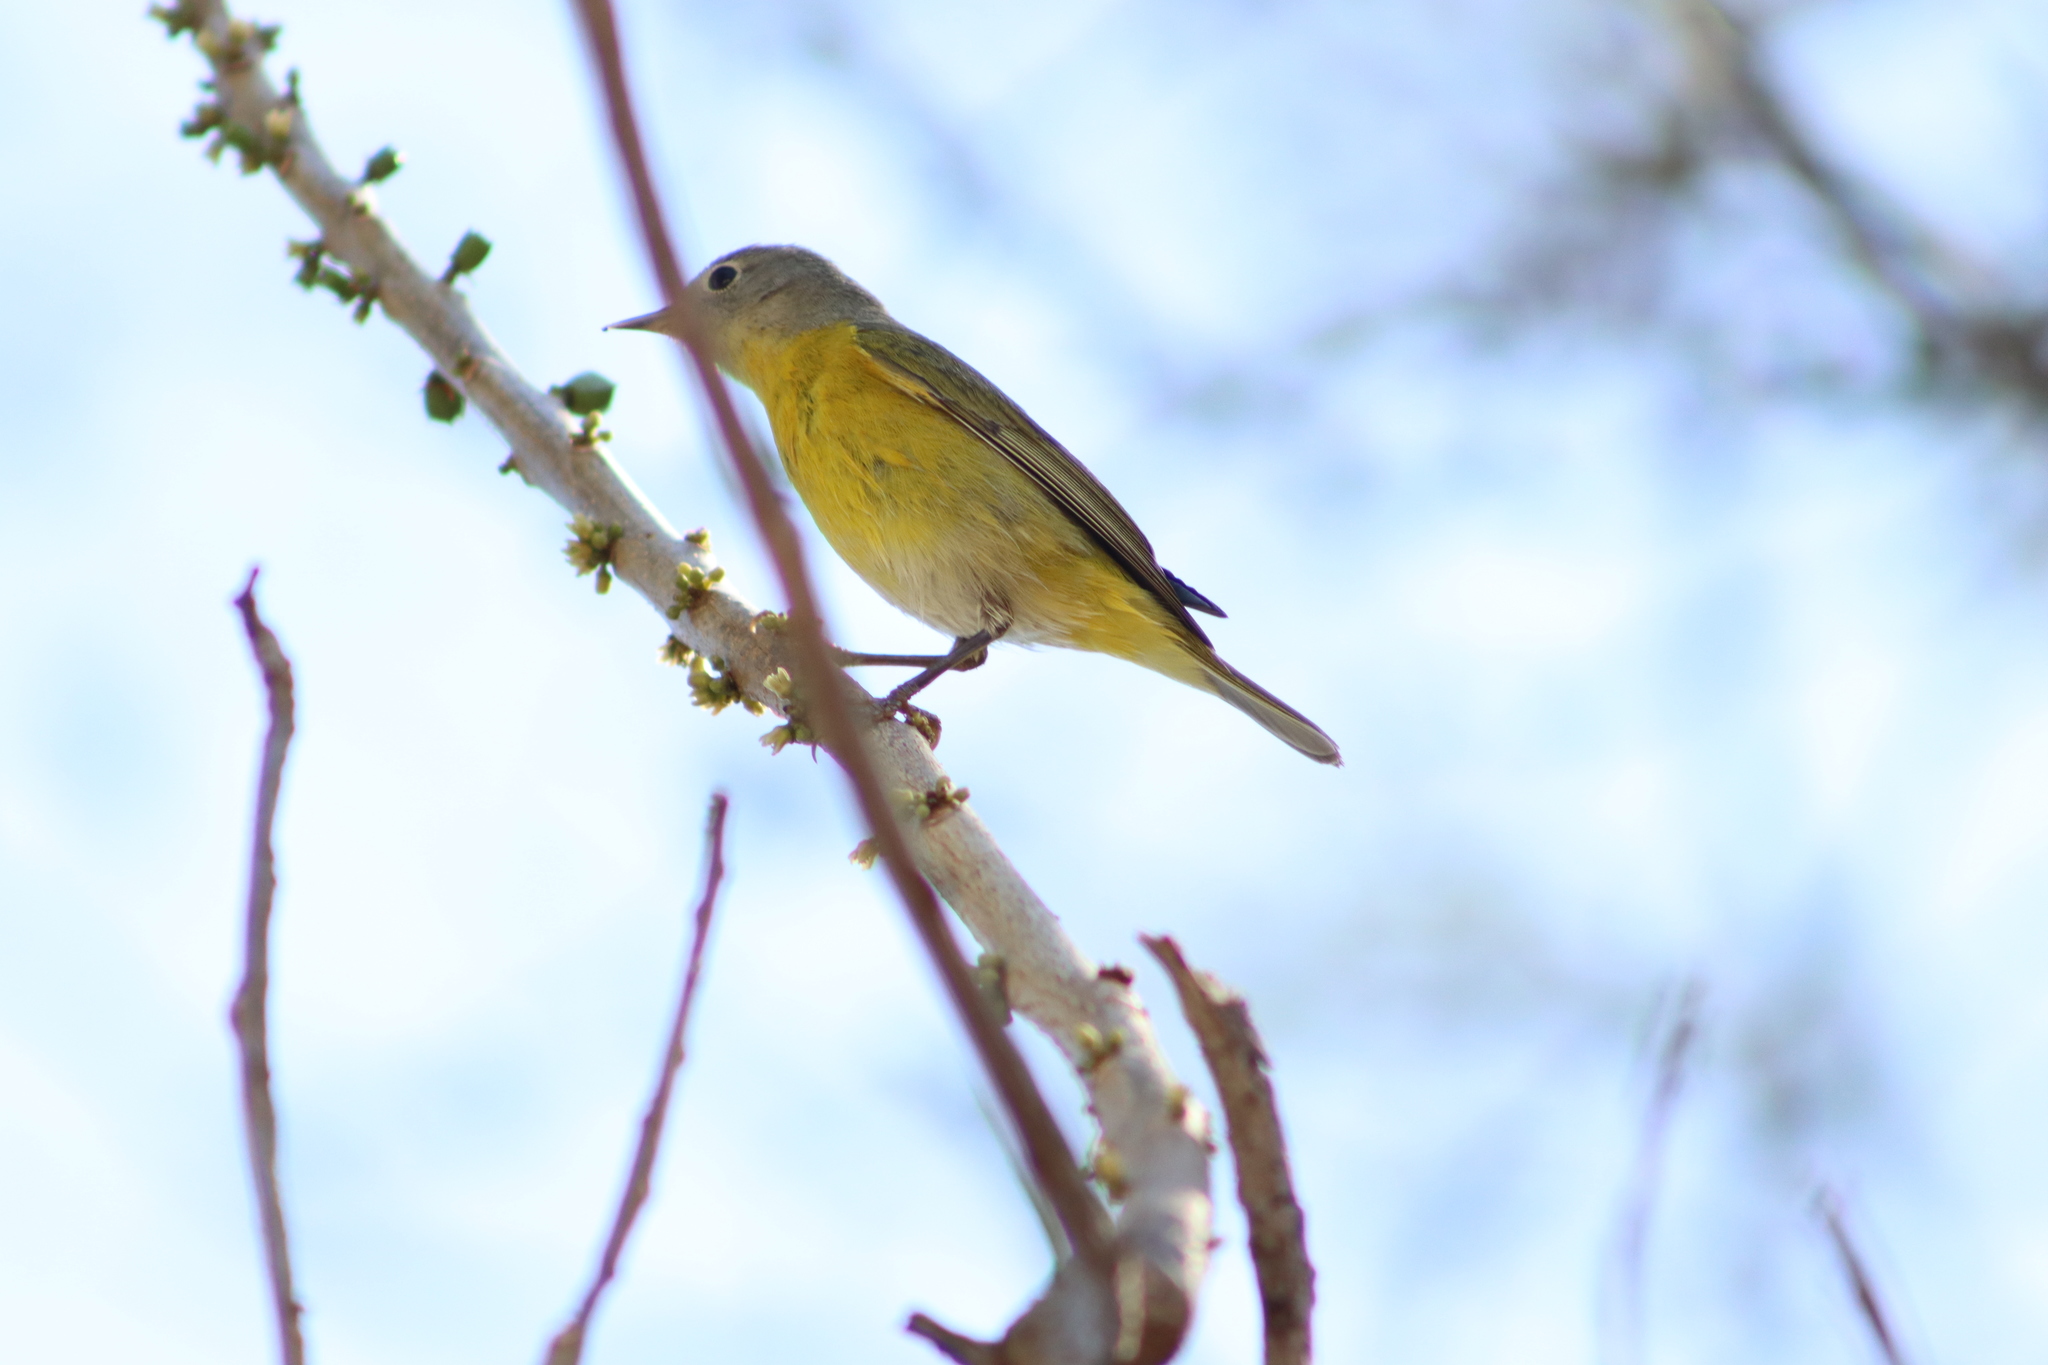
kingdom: Animalia
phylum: Chordata
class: Aves
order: Passeriformes
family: Parulidae
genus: Leiothlypis
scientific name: Leiothlypis ruficapilla
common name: Nashville warbler
